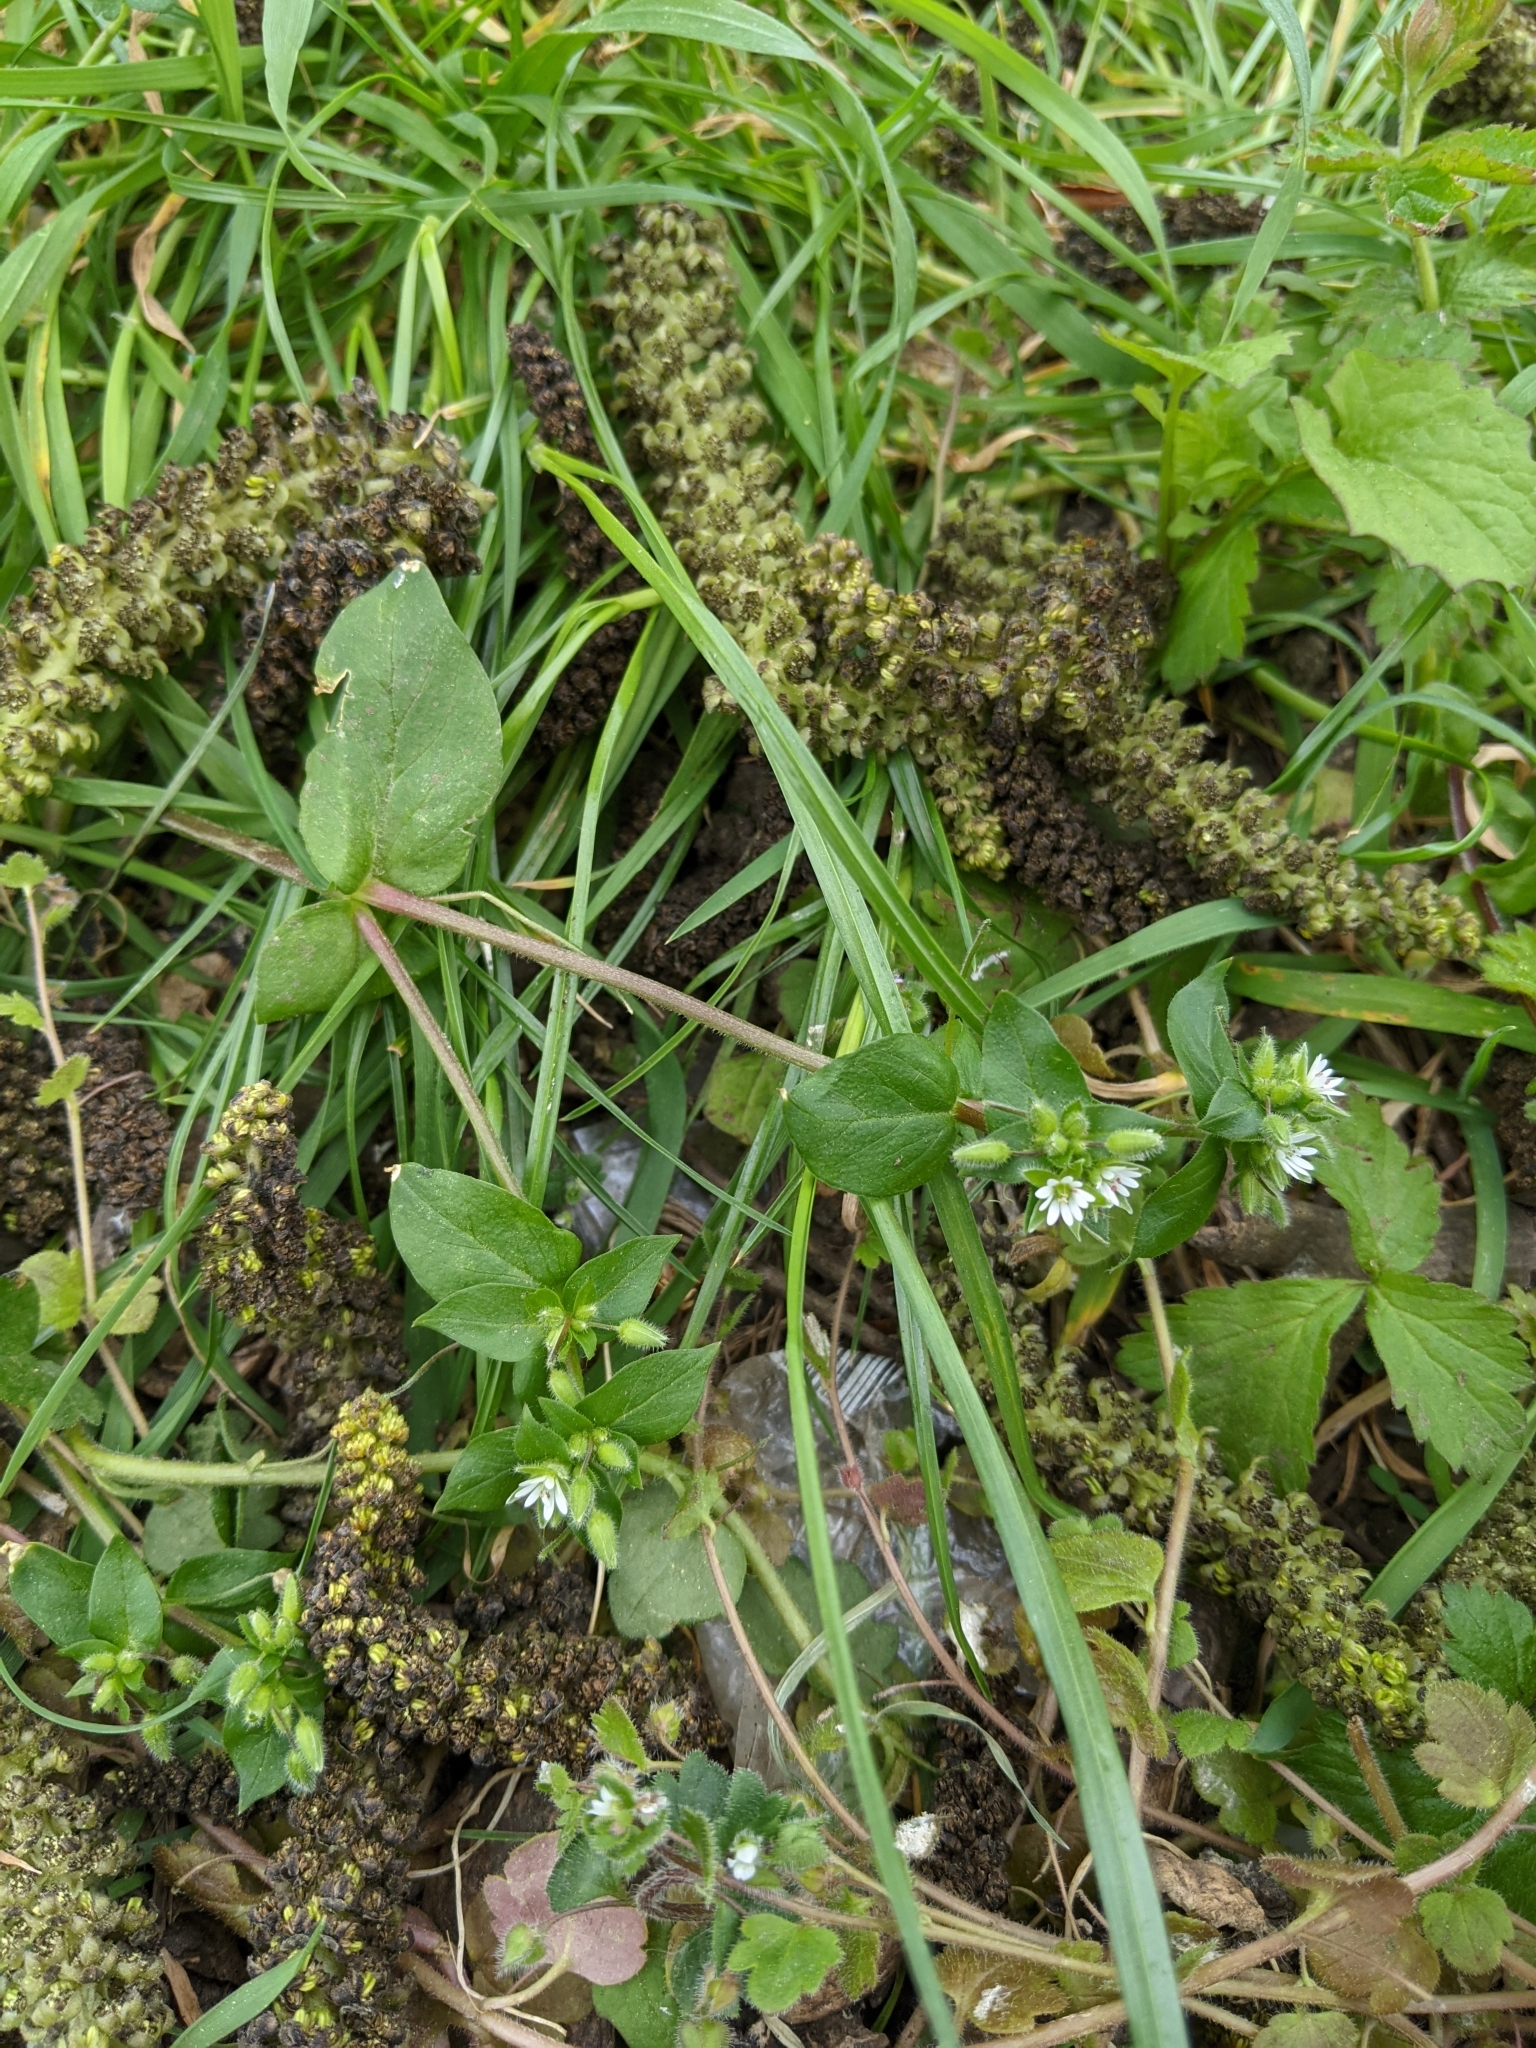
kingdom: Plantae
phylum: Tracheophyta
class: Magnoliopsida
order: Caryophyllales
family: Caryophyllaceae
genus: Stellaria
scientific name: Stellaria media
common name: Common chickweed
